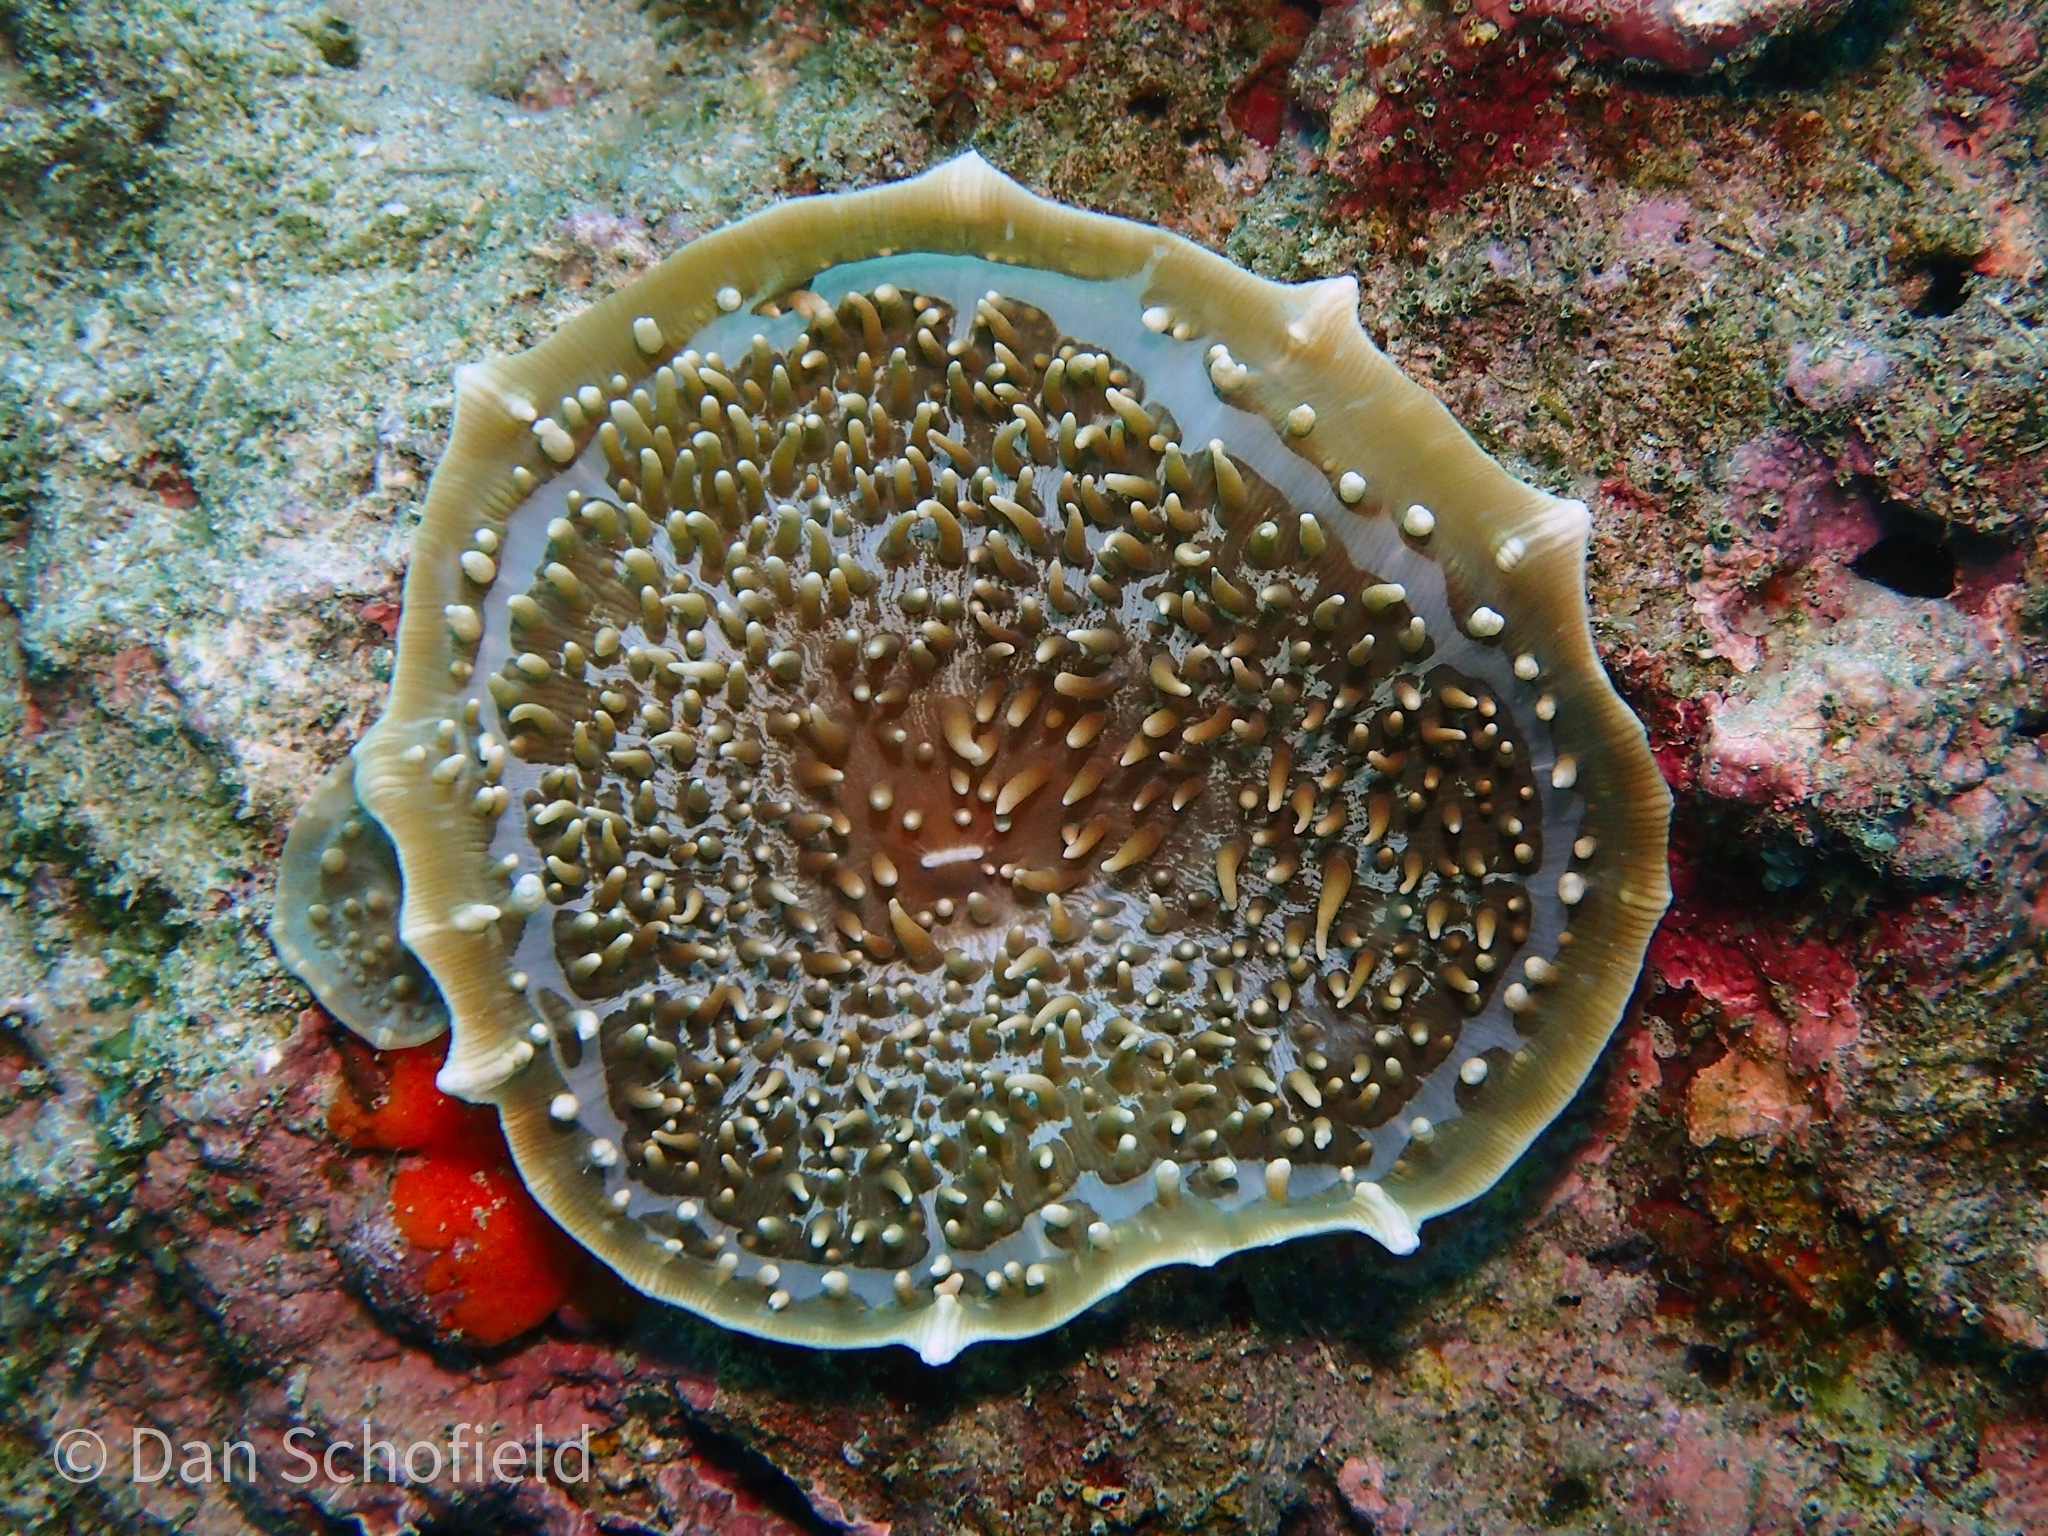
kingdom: Animalia
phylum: Cnidaria
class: Anthozoa
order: Corallimorpharia
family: Discosomidae
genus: Amplexidiscus
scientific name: Amplexidiscus fenestrafer
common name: Elephant ear anemone
